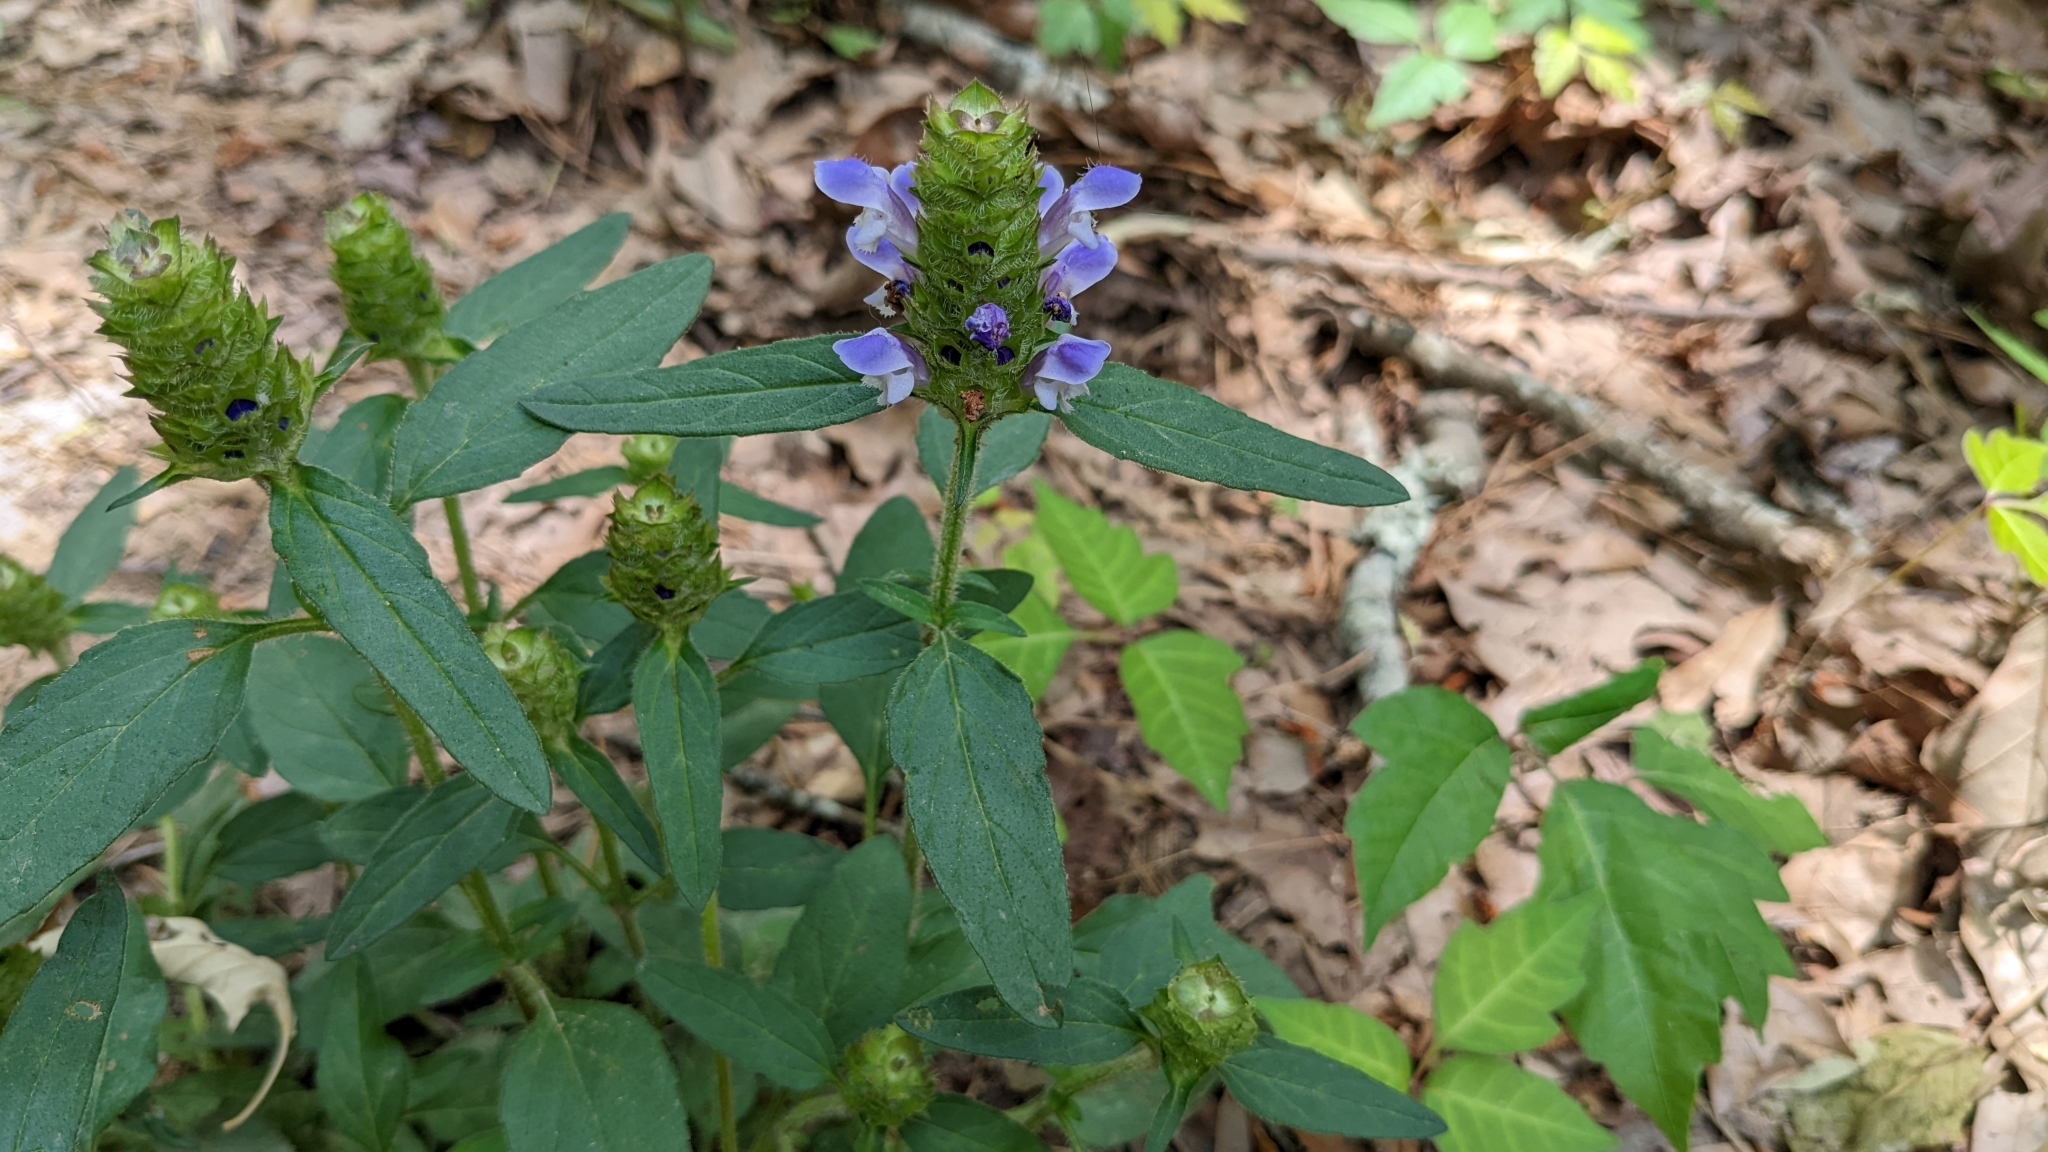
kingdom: Plantae
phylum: Tracheophyta
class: Magnoliopsida
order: Lamiales
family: Lamiaceae
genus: Prunella
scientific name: Prunella vulgaris
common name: Heal-all
